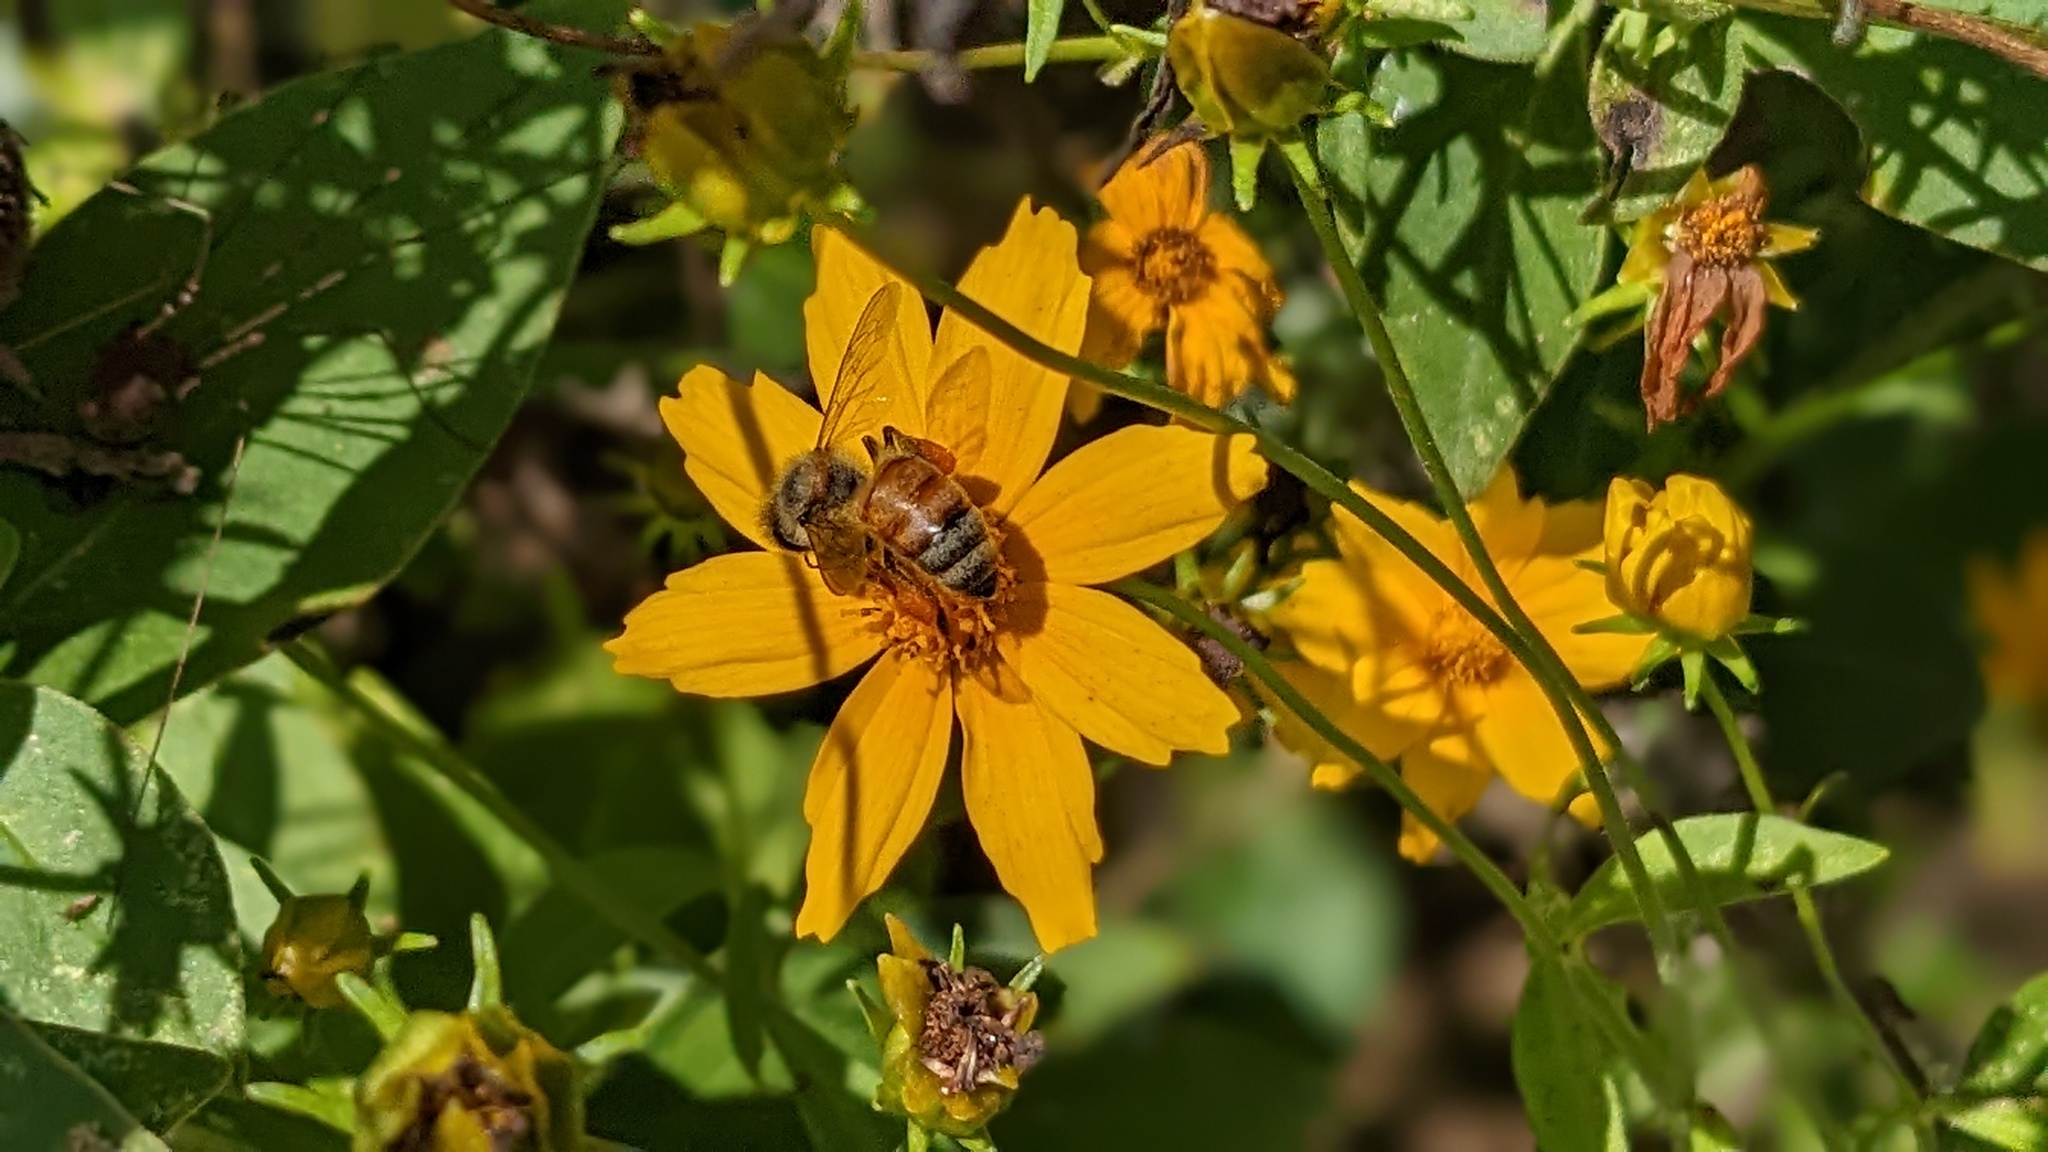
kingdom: Plantae
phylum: Tracheophyta
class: Magnoliopsida
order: Asterales
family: Asteraceae
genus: Coreopsis
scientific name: Coreopsis pubescens
